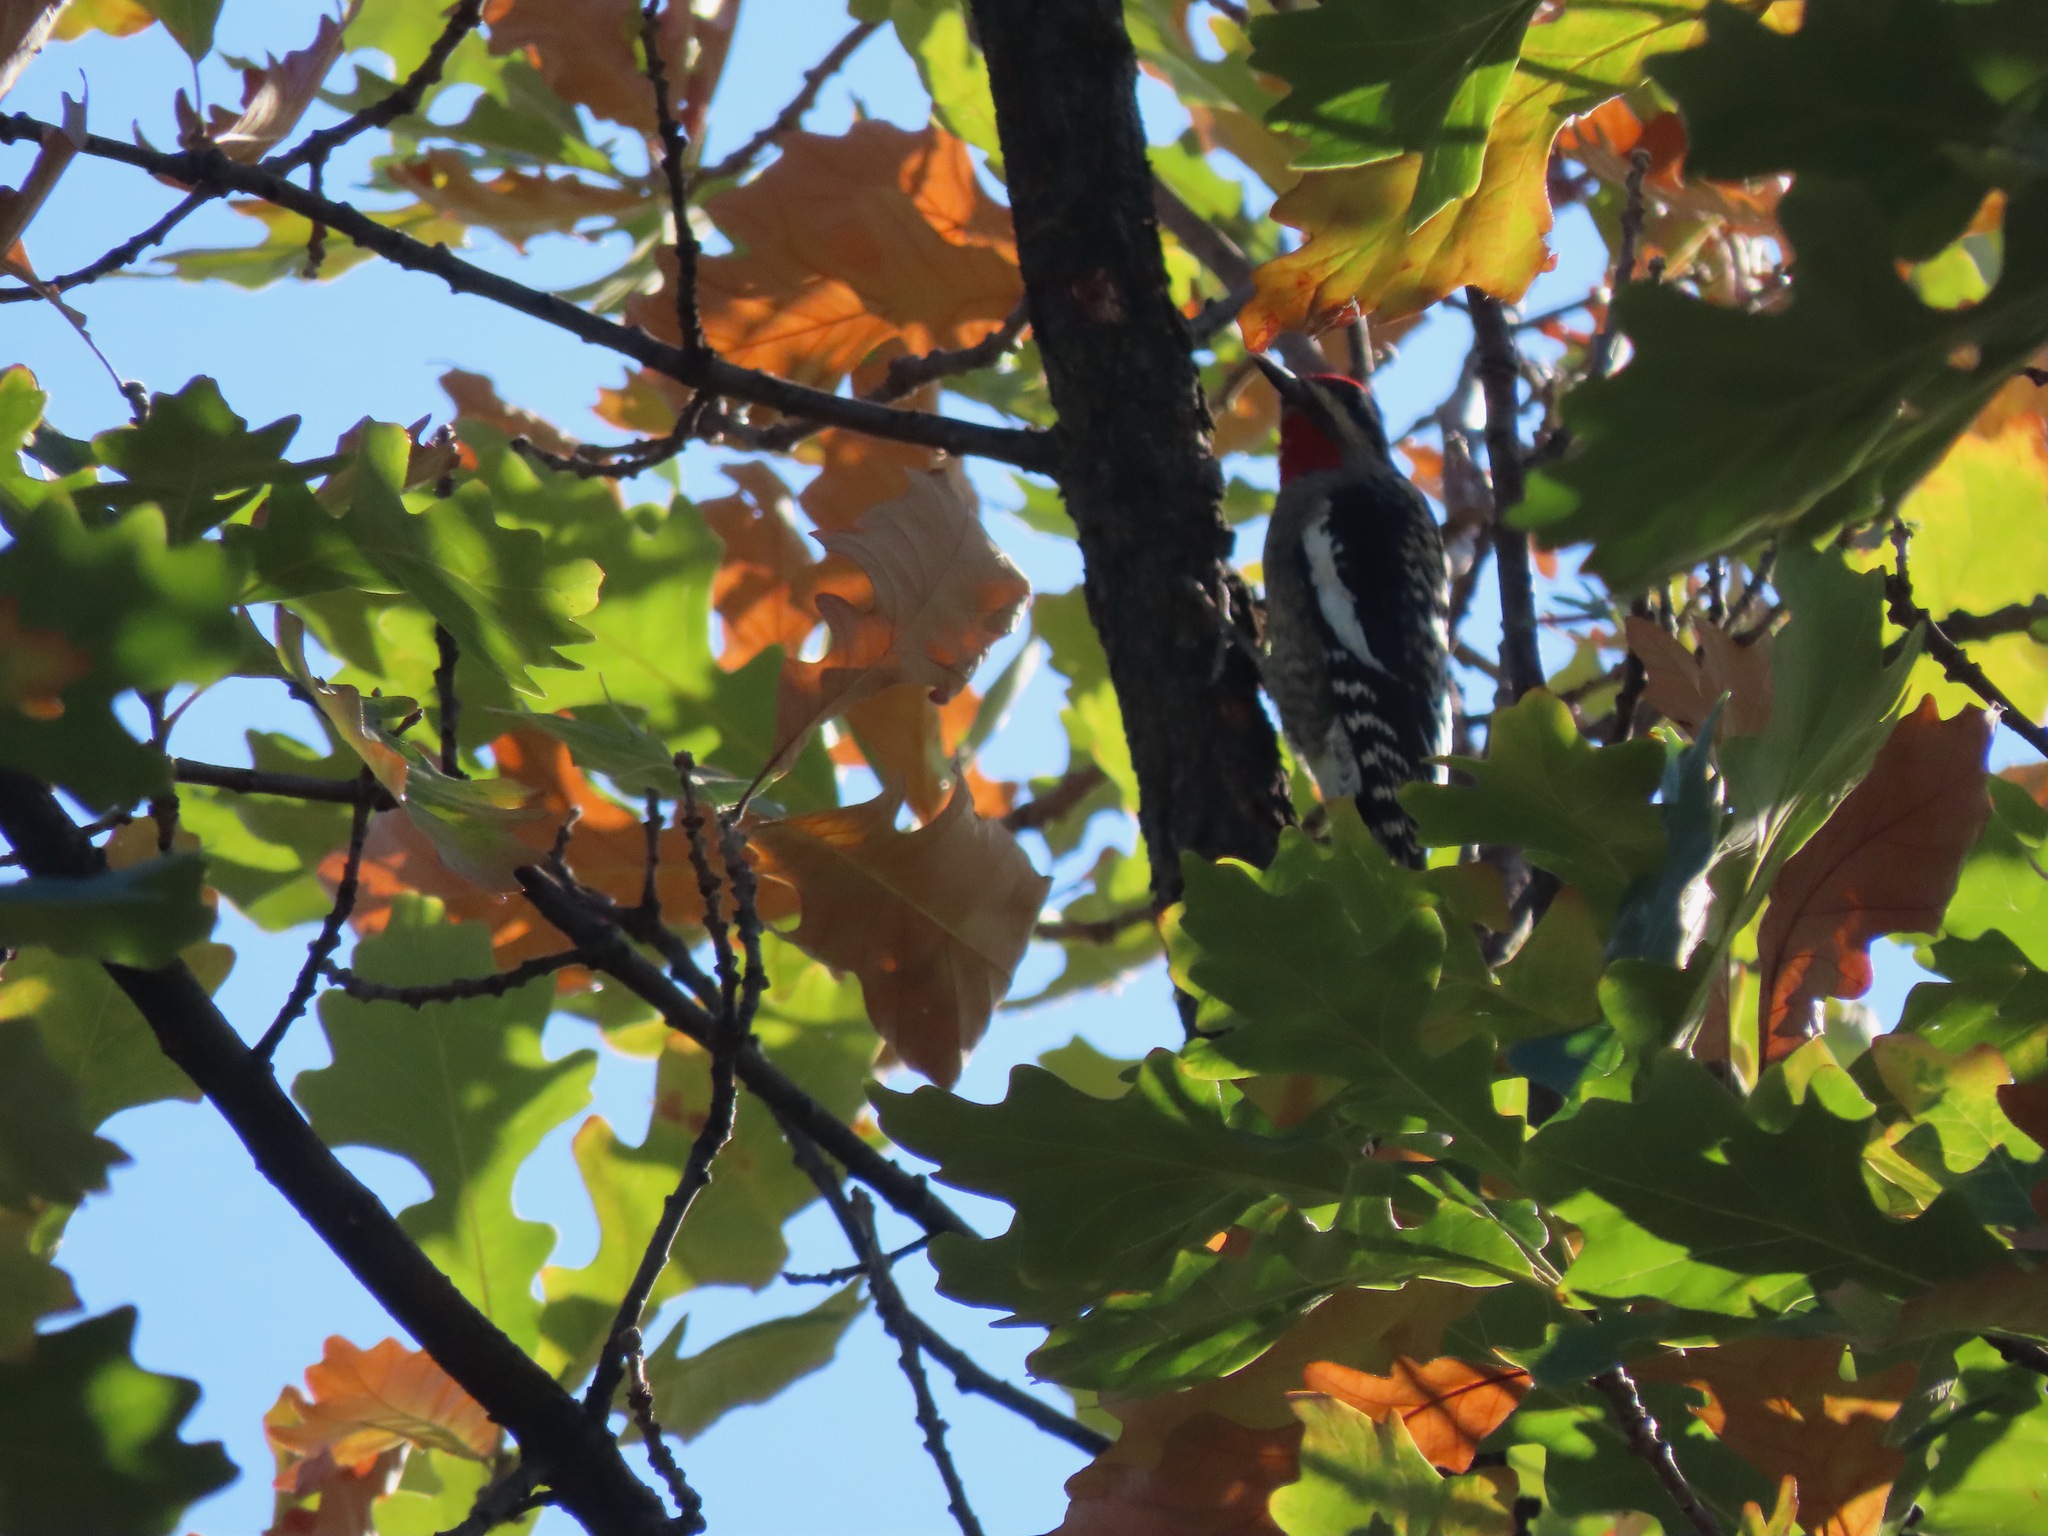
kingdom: Animalia
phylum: Chordata
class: Aves
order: Piciformes
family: Picidae
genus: Sphyrapicus
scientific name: Sphyrapicus nuchalis
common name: Red-naped sapsucker
